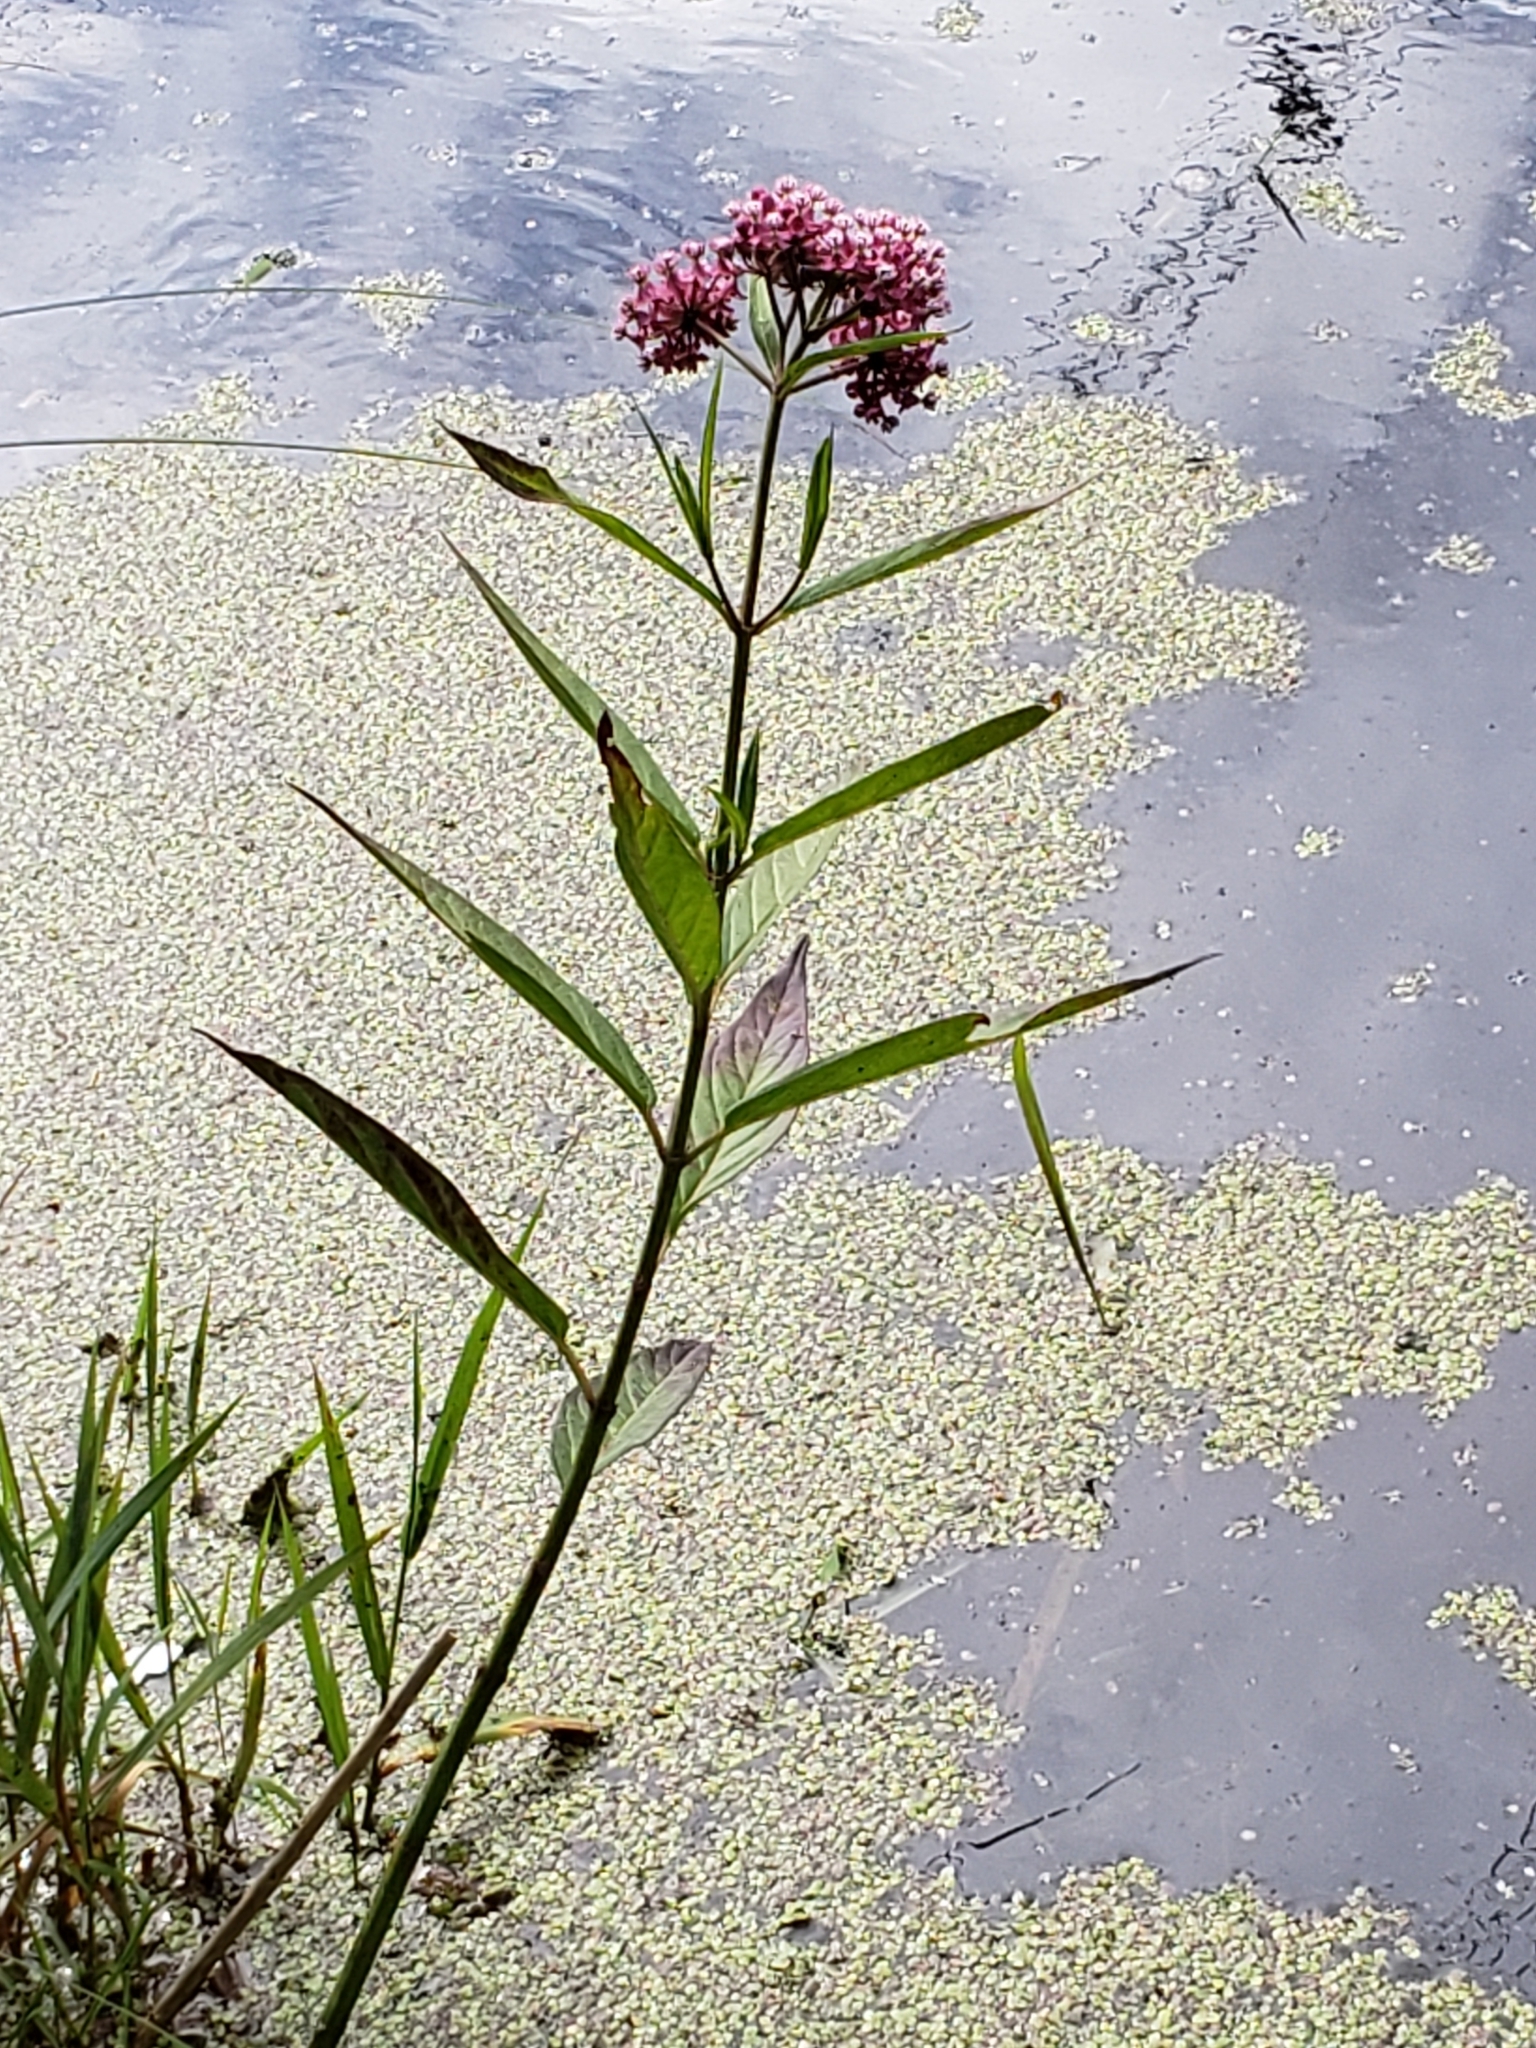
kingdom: Plantae
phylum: Tracheophyta
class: Magnoliopsida
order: Gentianales
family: Apocynaceae
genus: Asclepias
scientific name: Asclepias incarnata
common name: Swamp milkweed
